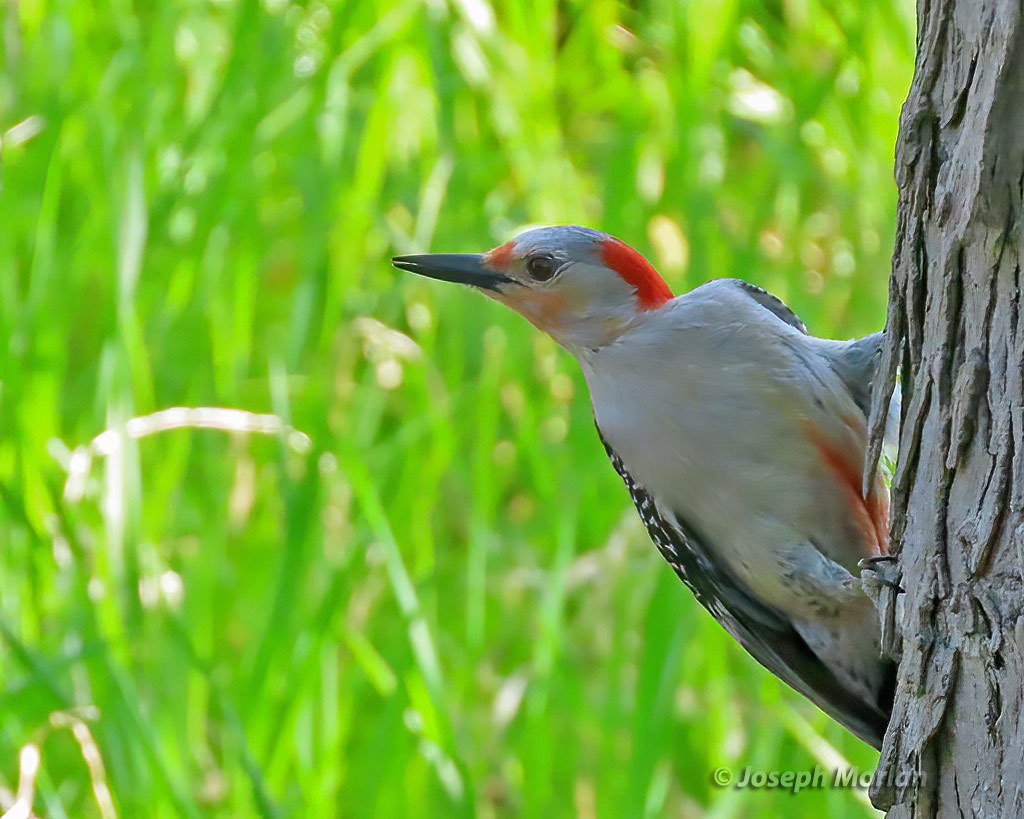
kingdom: Animalia
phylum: Chordata
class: Aves
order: Piciformes
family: Picidae
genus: Melanerpes
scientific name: Melanerpes carolinus
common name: Red-bellied woodpecker
